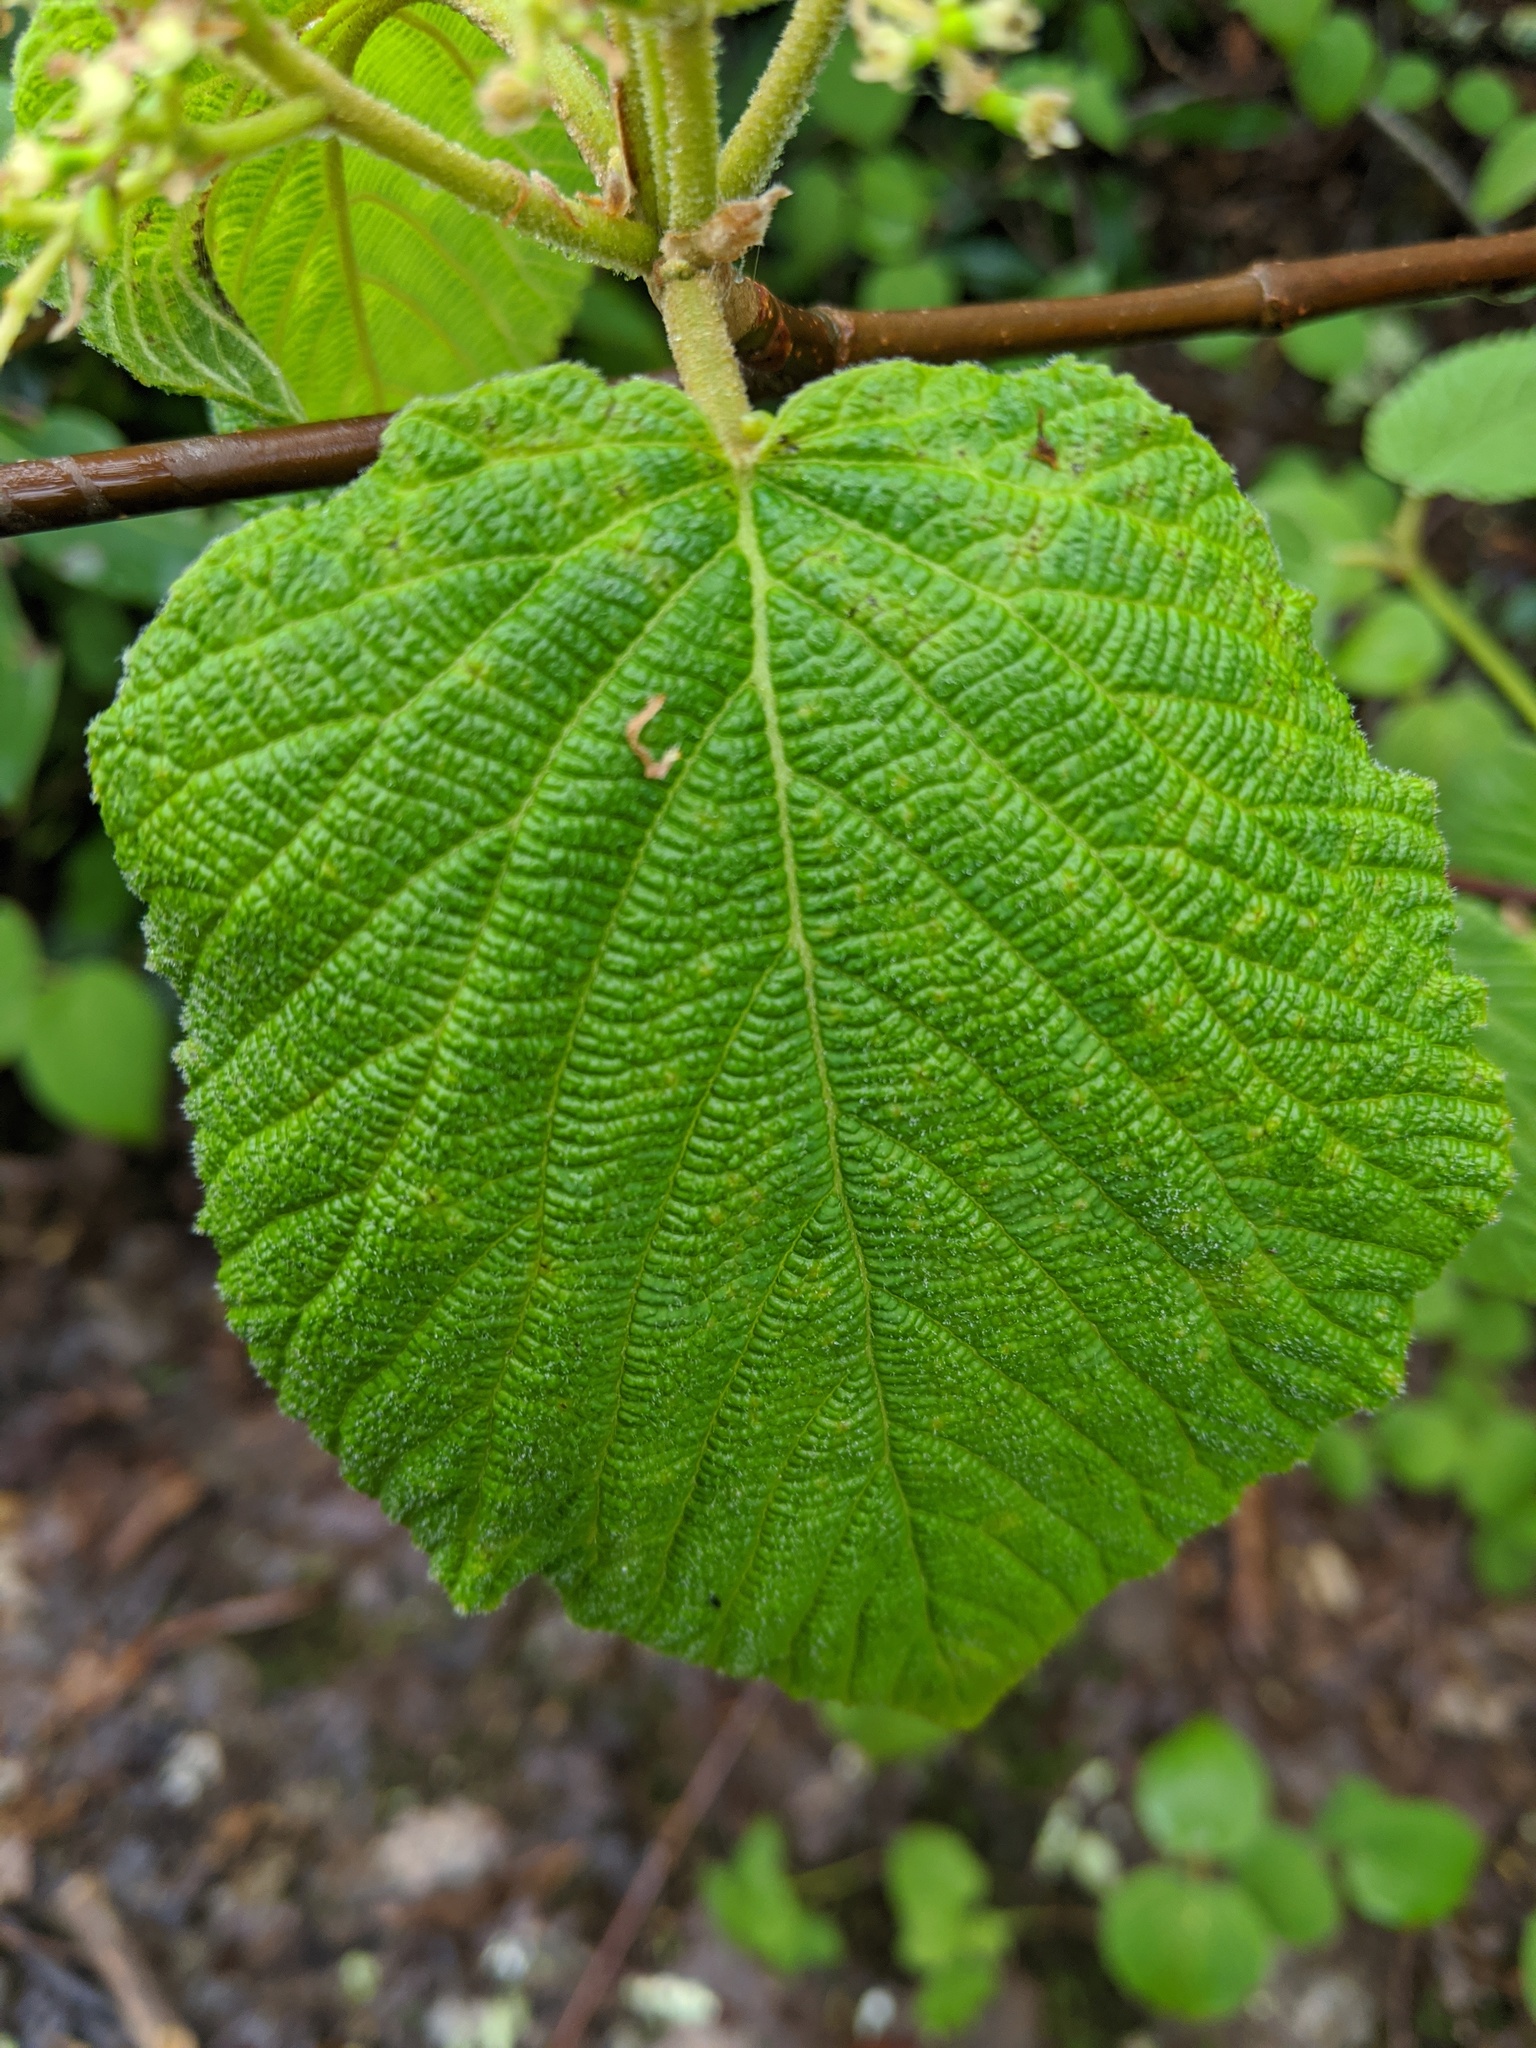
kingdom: Plantae
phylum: Tracheophyta
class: Magnoliopsida
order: Dipsacales
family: Viburnaceae
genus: Viburnum
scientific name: Viburnum lantanoides
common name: Hobblebush
